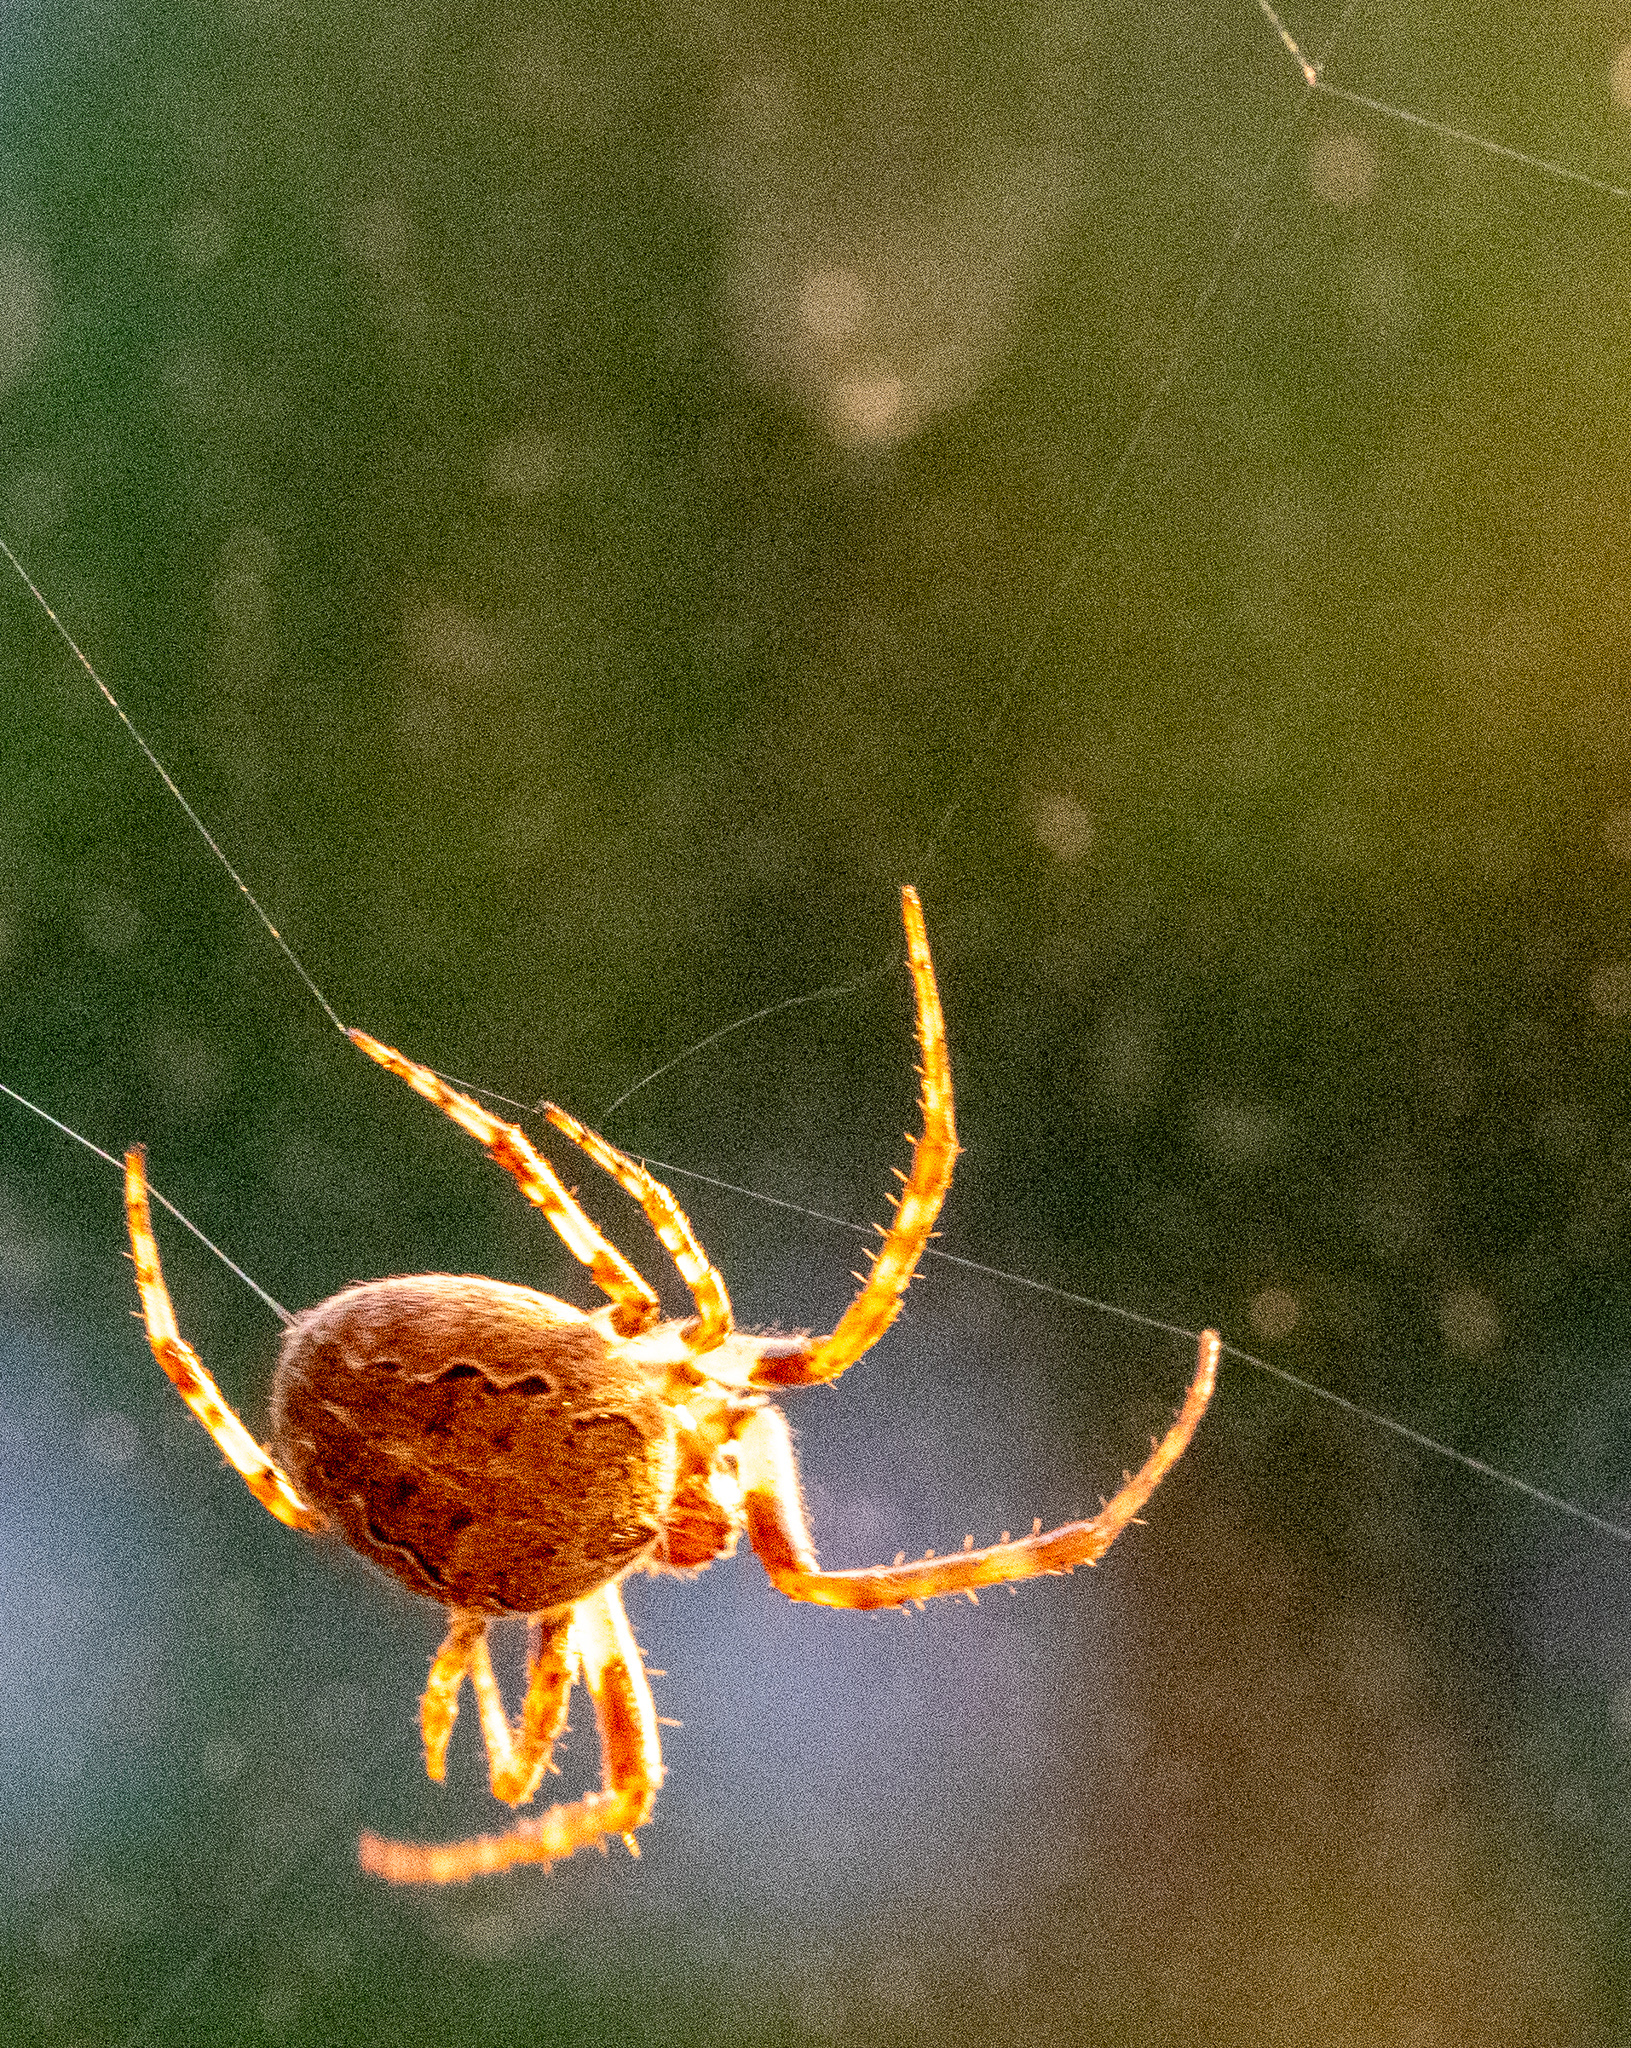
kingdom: Animalia
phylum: Arthropoda
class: Arachnida
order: Araneae
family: Araneidae
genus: Larinioides
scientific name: Larinioides sclopetarius
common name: Bridge orbweaver
